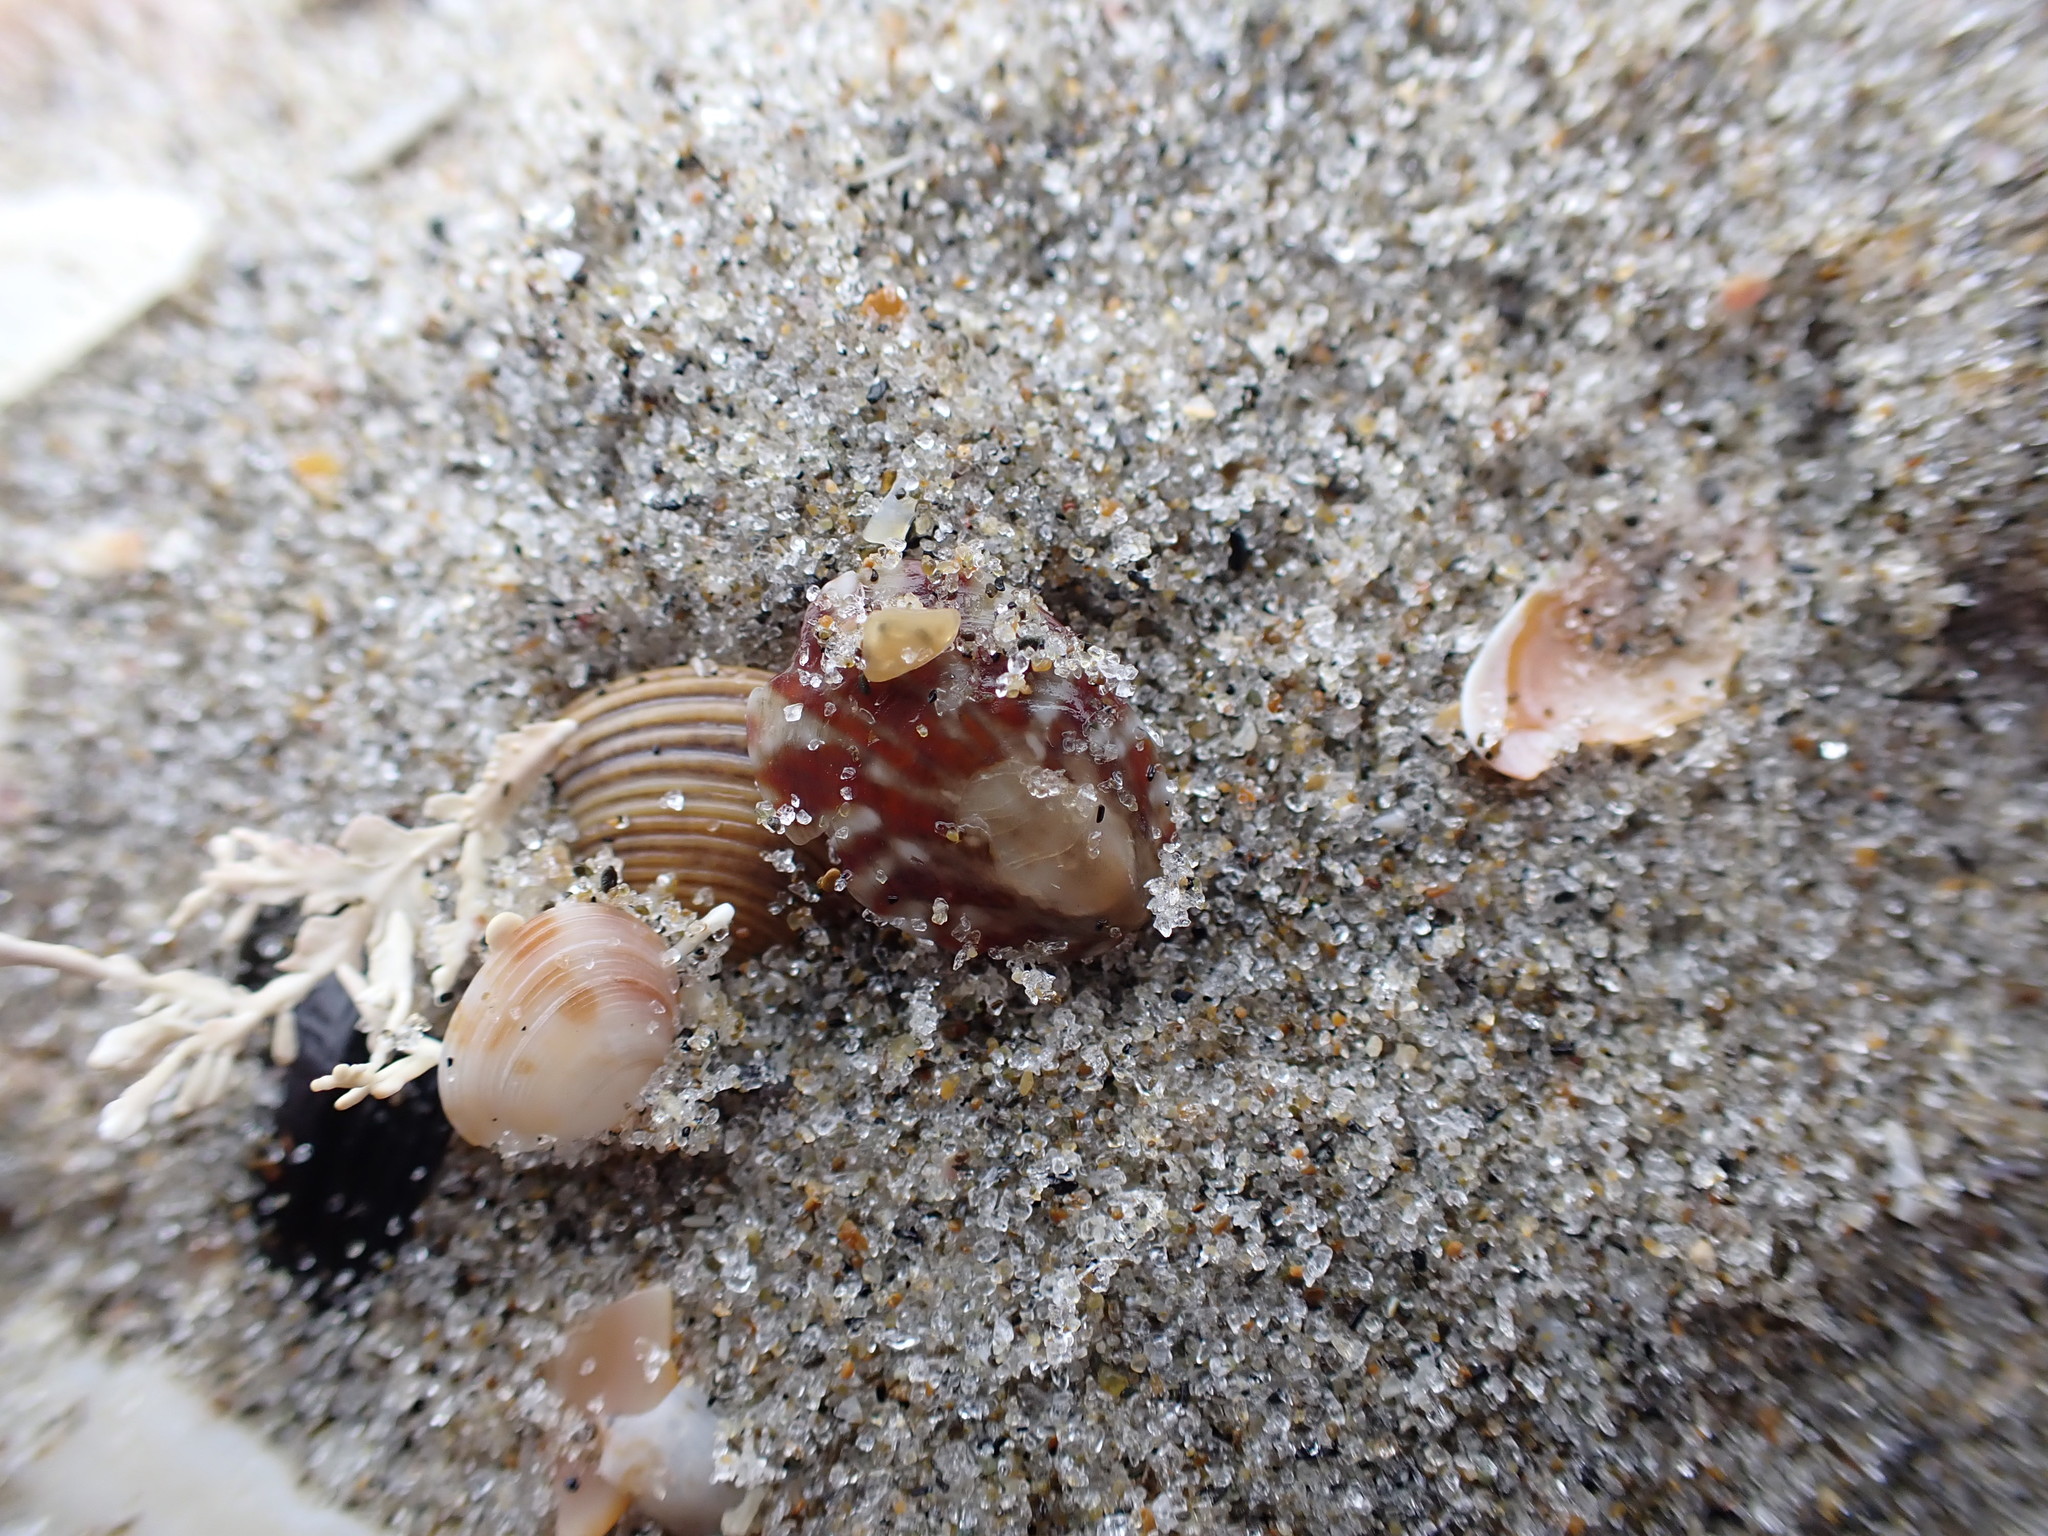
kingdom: Animalia
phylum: Mollusca
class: Gastropoda
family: Nacellidae
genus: Cellana
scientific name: Cellana radians
